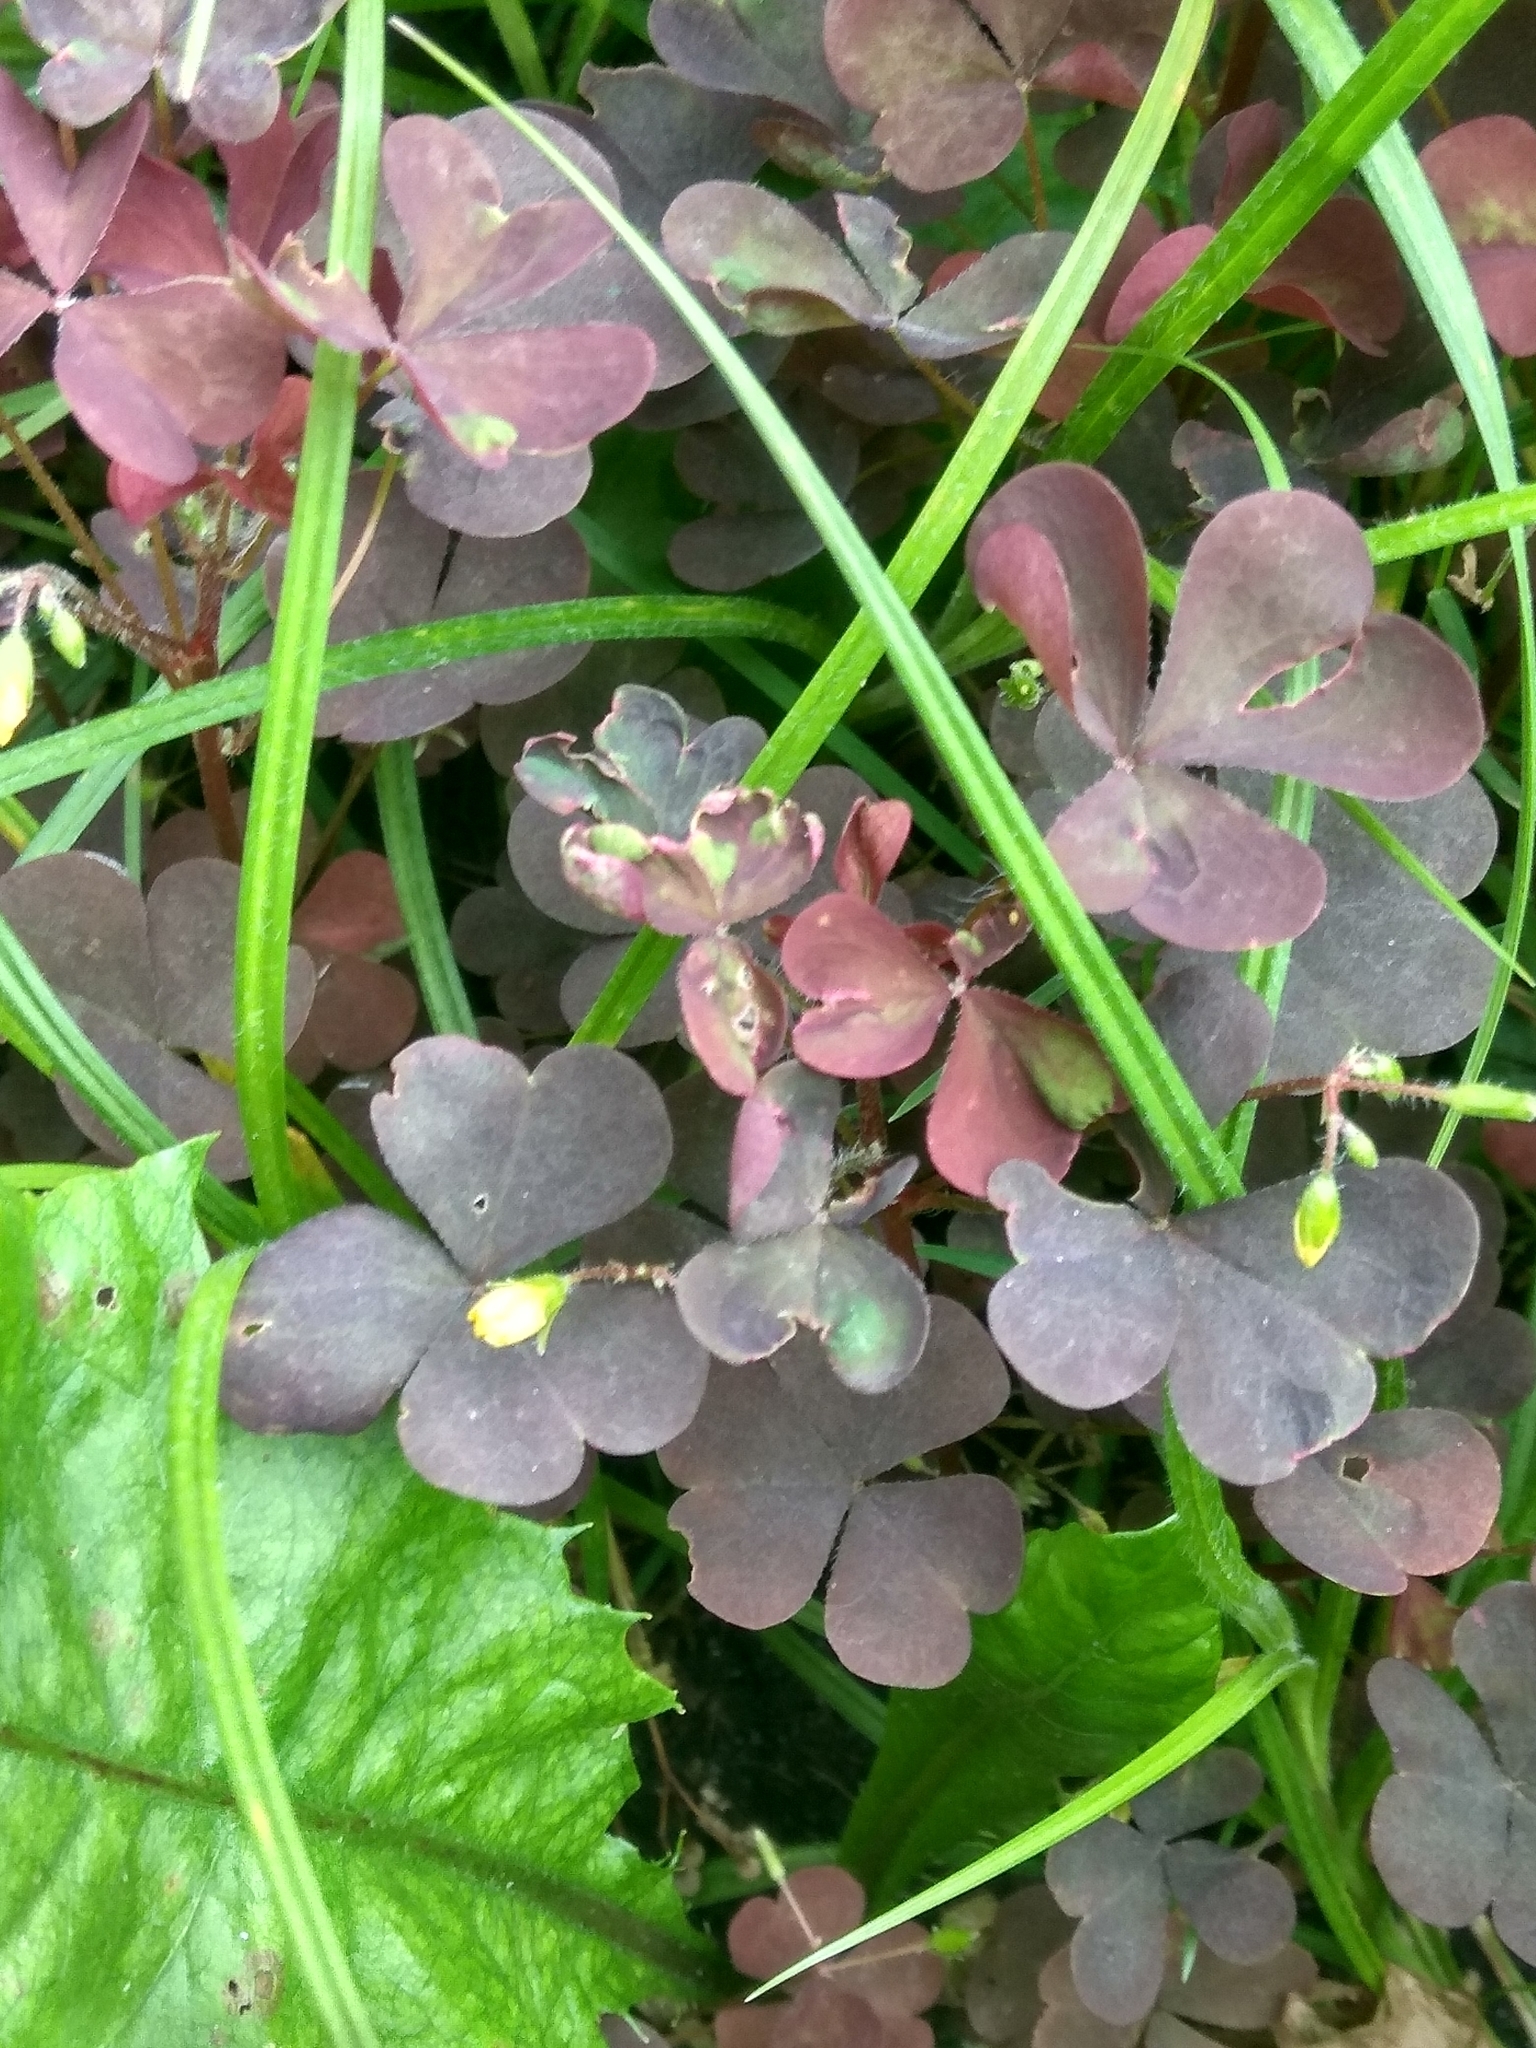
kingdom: Plantae
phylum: Tracheophyta
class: Magnoliopsida
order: Oxalidales
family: Oxalidaceae
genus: Oxalis
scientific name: Oxalis stricta
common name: Upright yellow-sorrel
